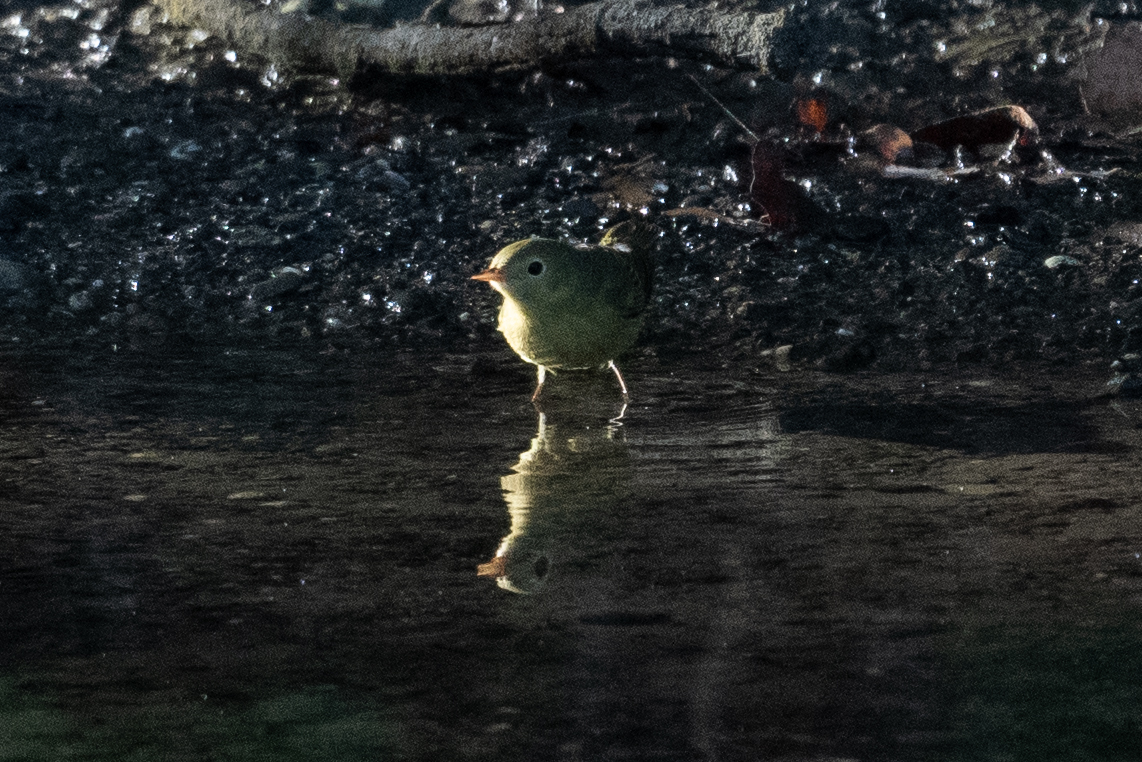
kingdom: Animalia
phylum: Chordata
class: Aves
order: Passeriformes
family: Parulidae
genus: Setophaga
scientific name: Setophaga petechia
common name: Yellow warbler
